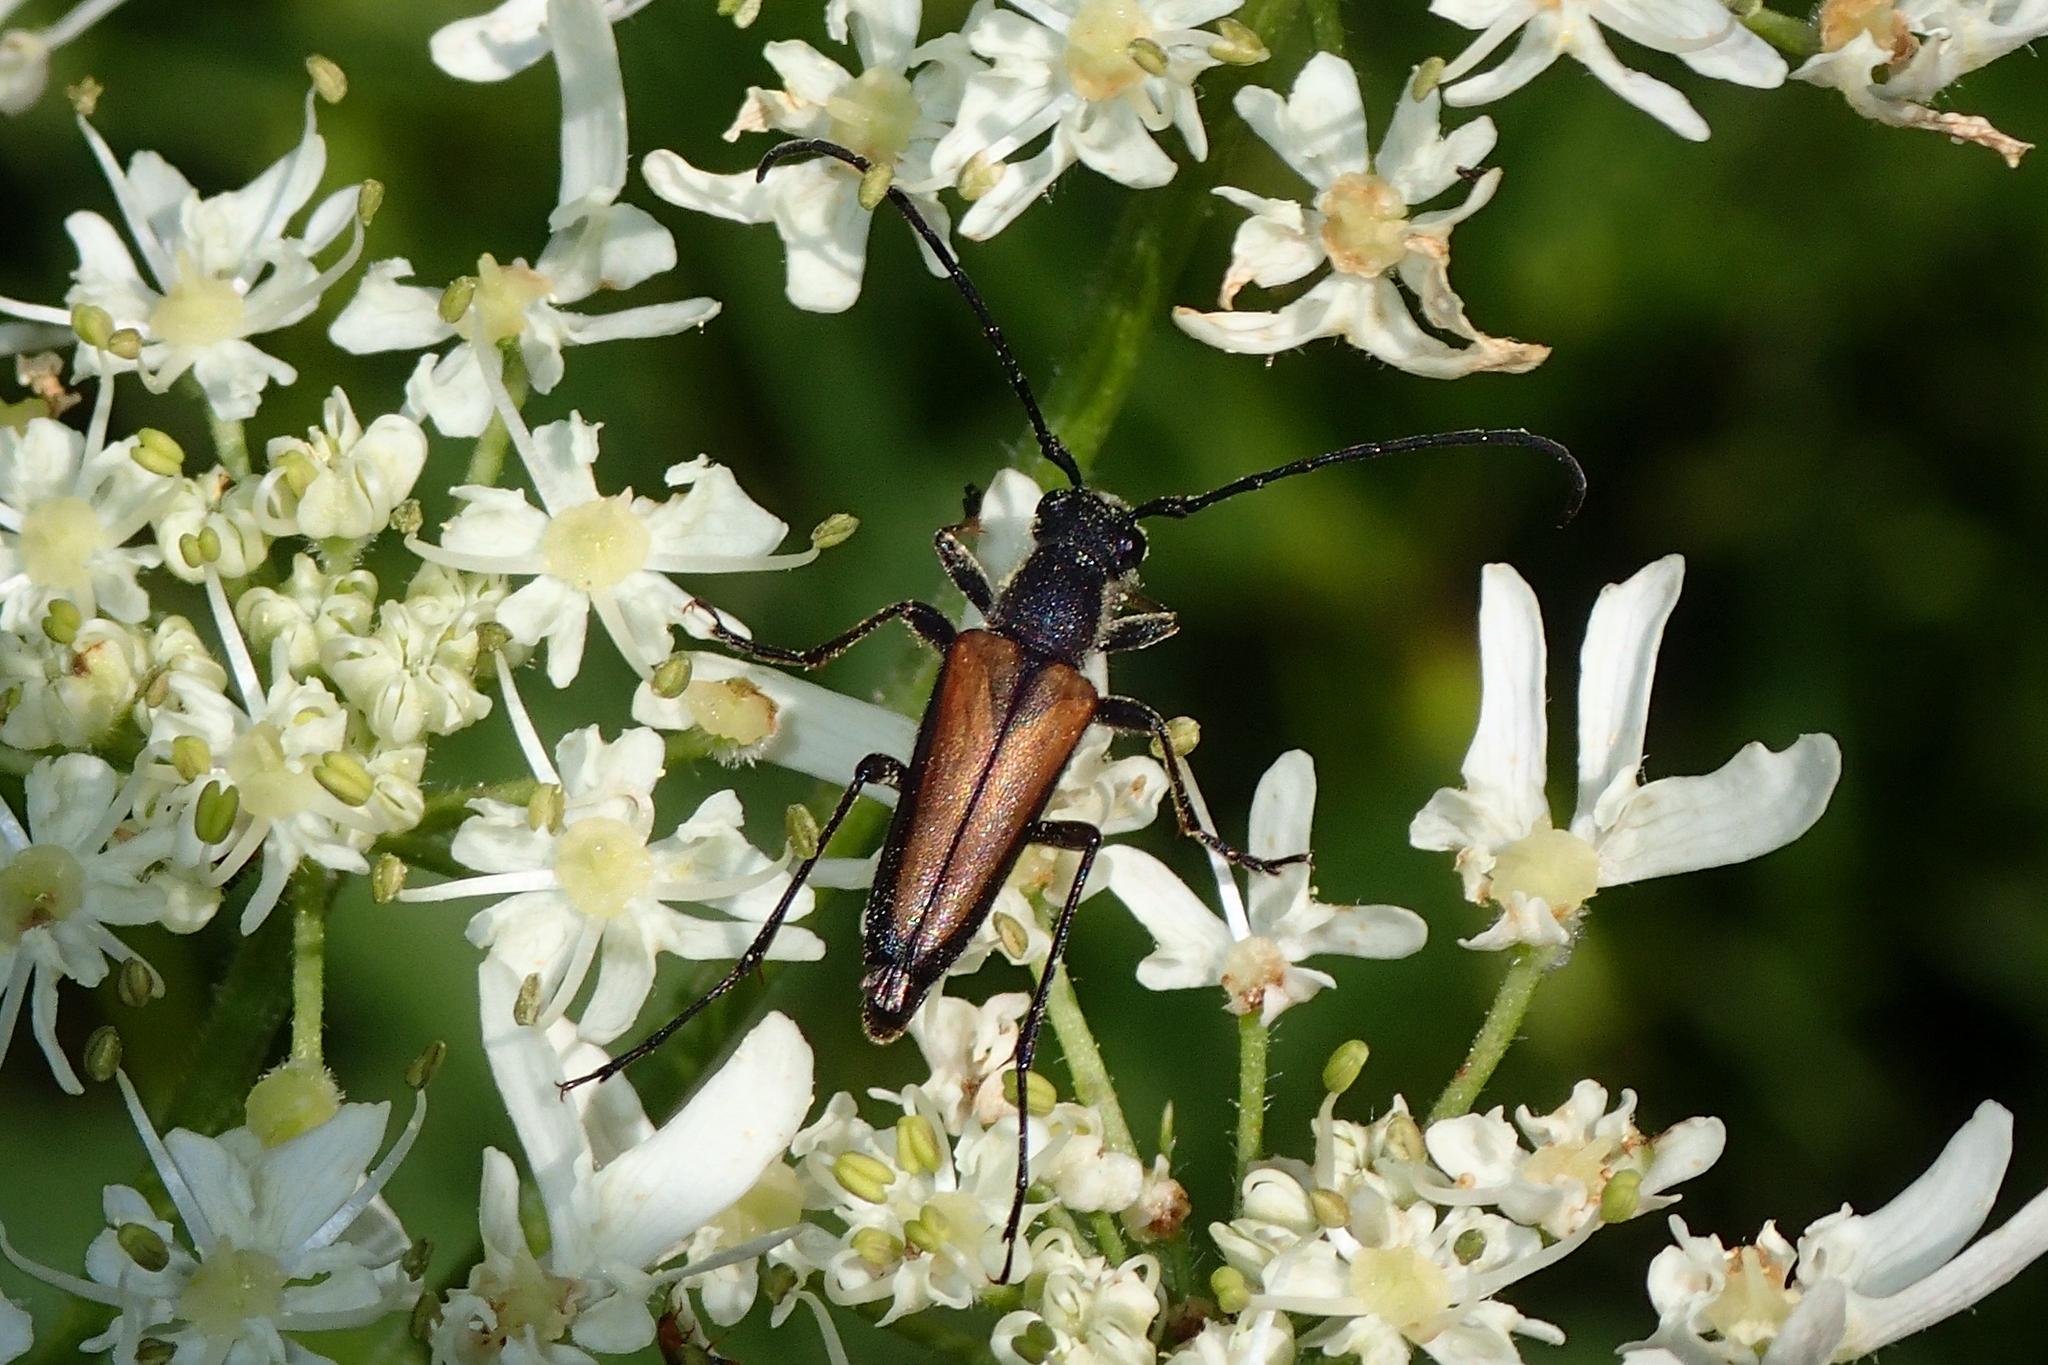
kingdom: Animalia
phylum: Arthropoda
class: Insecta
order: Coleoptera
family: Cerambycidae
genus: Anastrangalia
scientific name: Anastrangalia dubia
